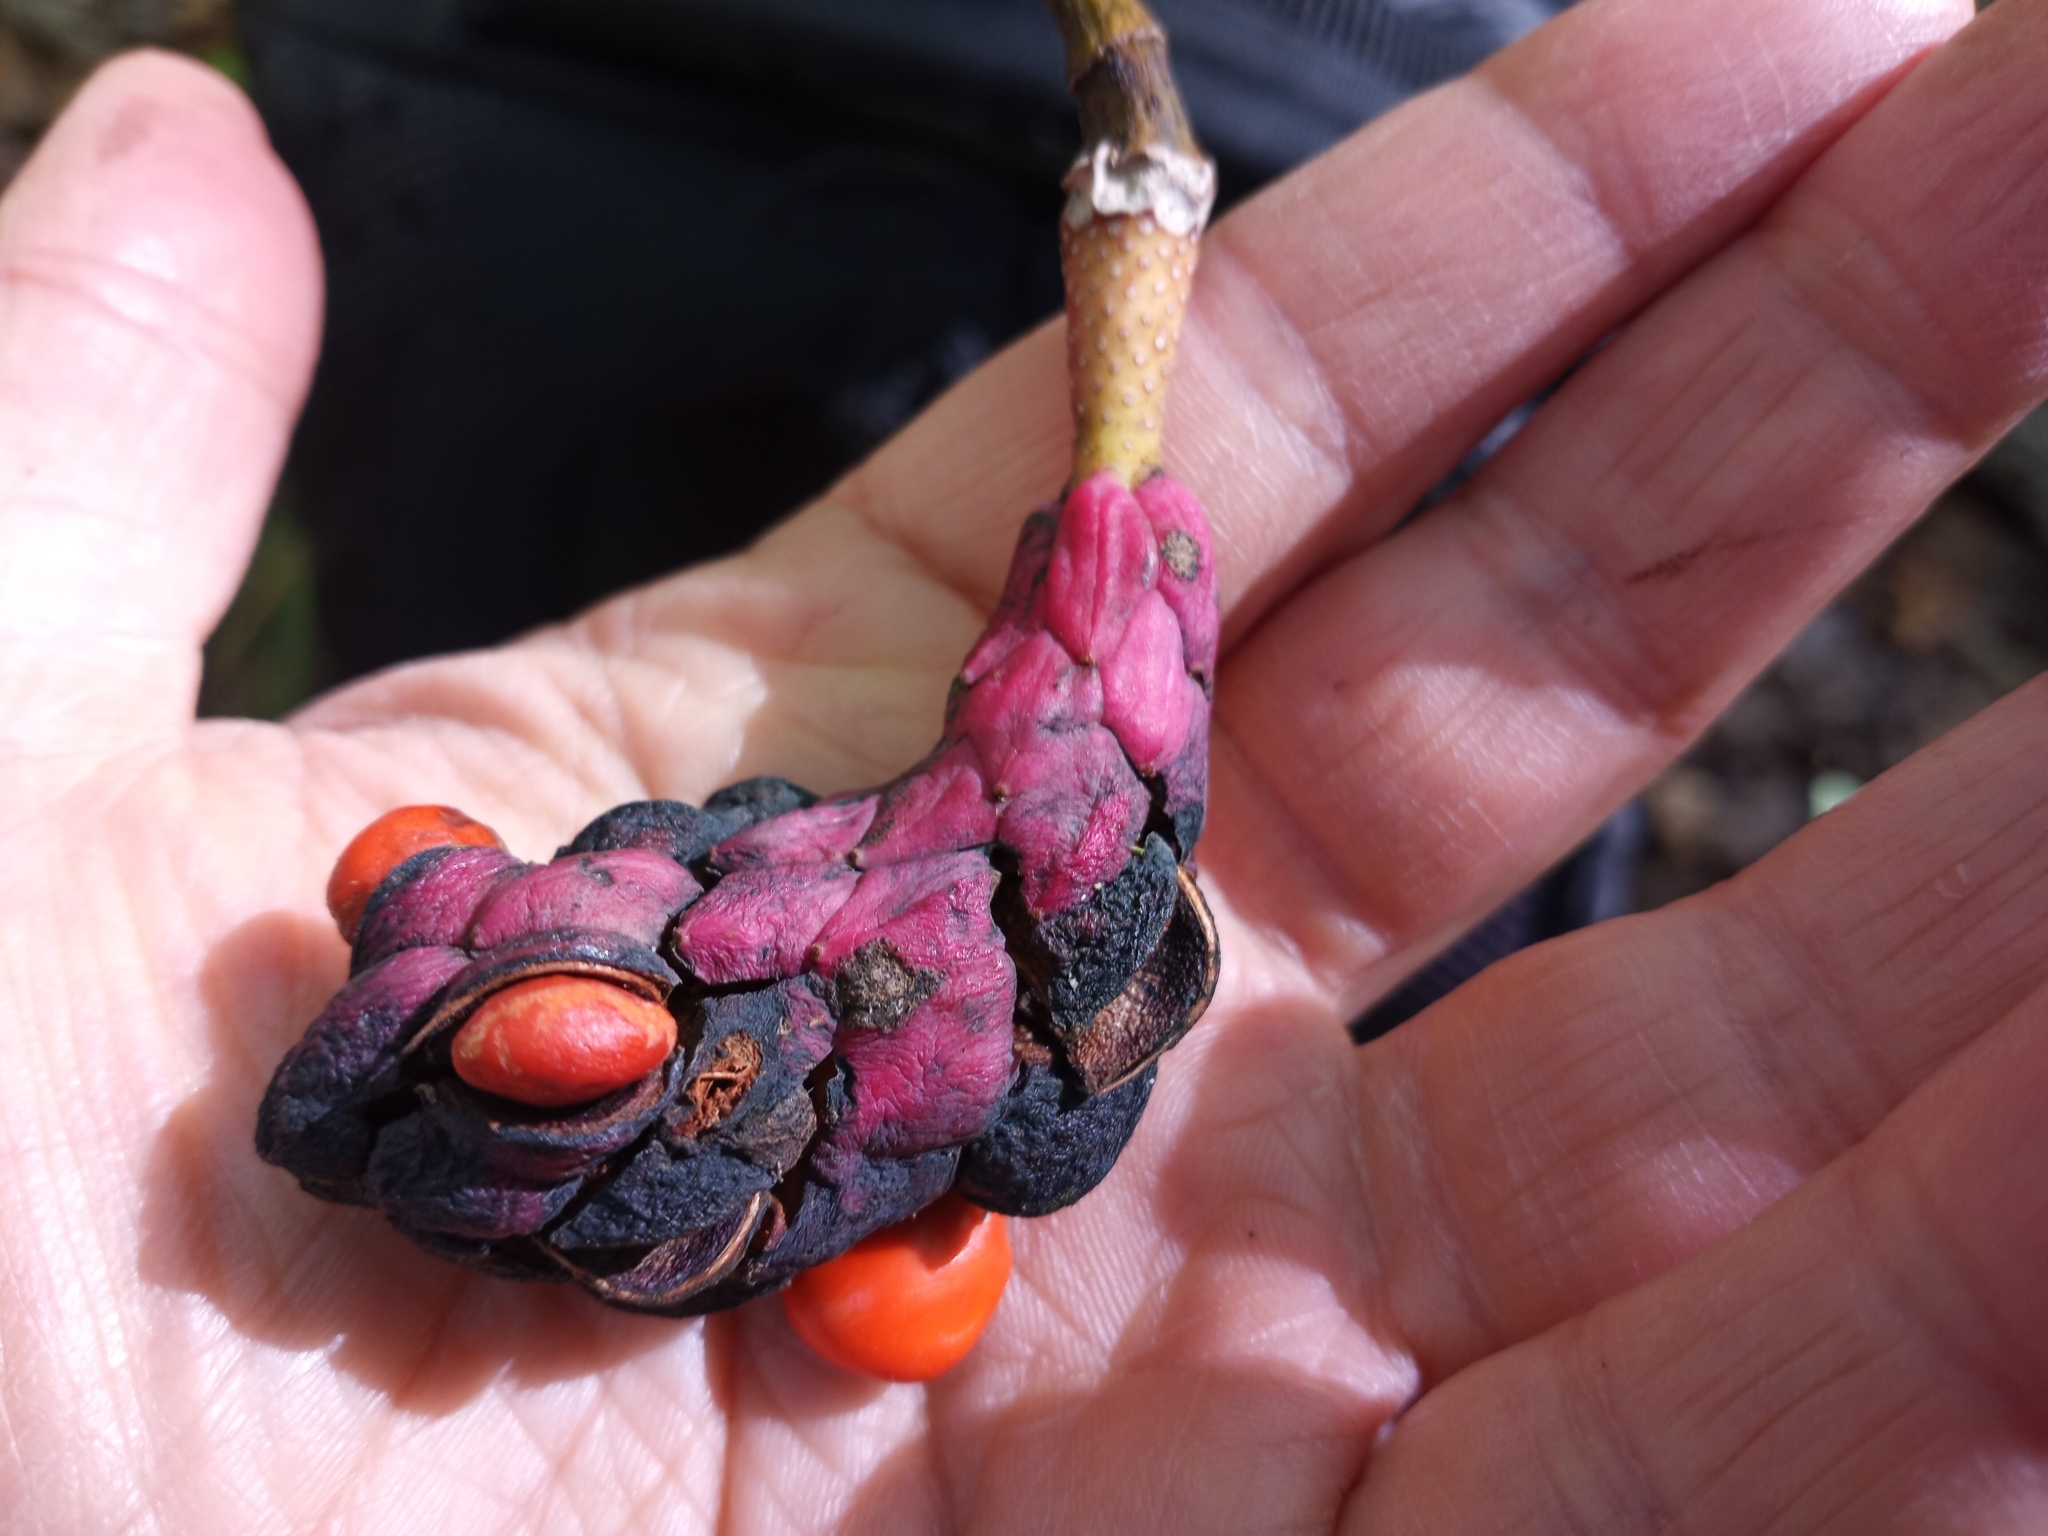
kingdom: Plantae
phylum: Tracheophyta
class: Magnoliopsida
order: Magnoliales
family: Magnoliaceae
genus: Magnolia
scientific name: Magnolia acuminata
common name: Cucumber magnolia
